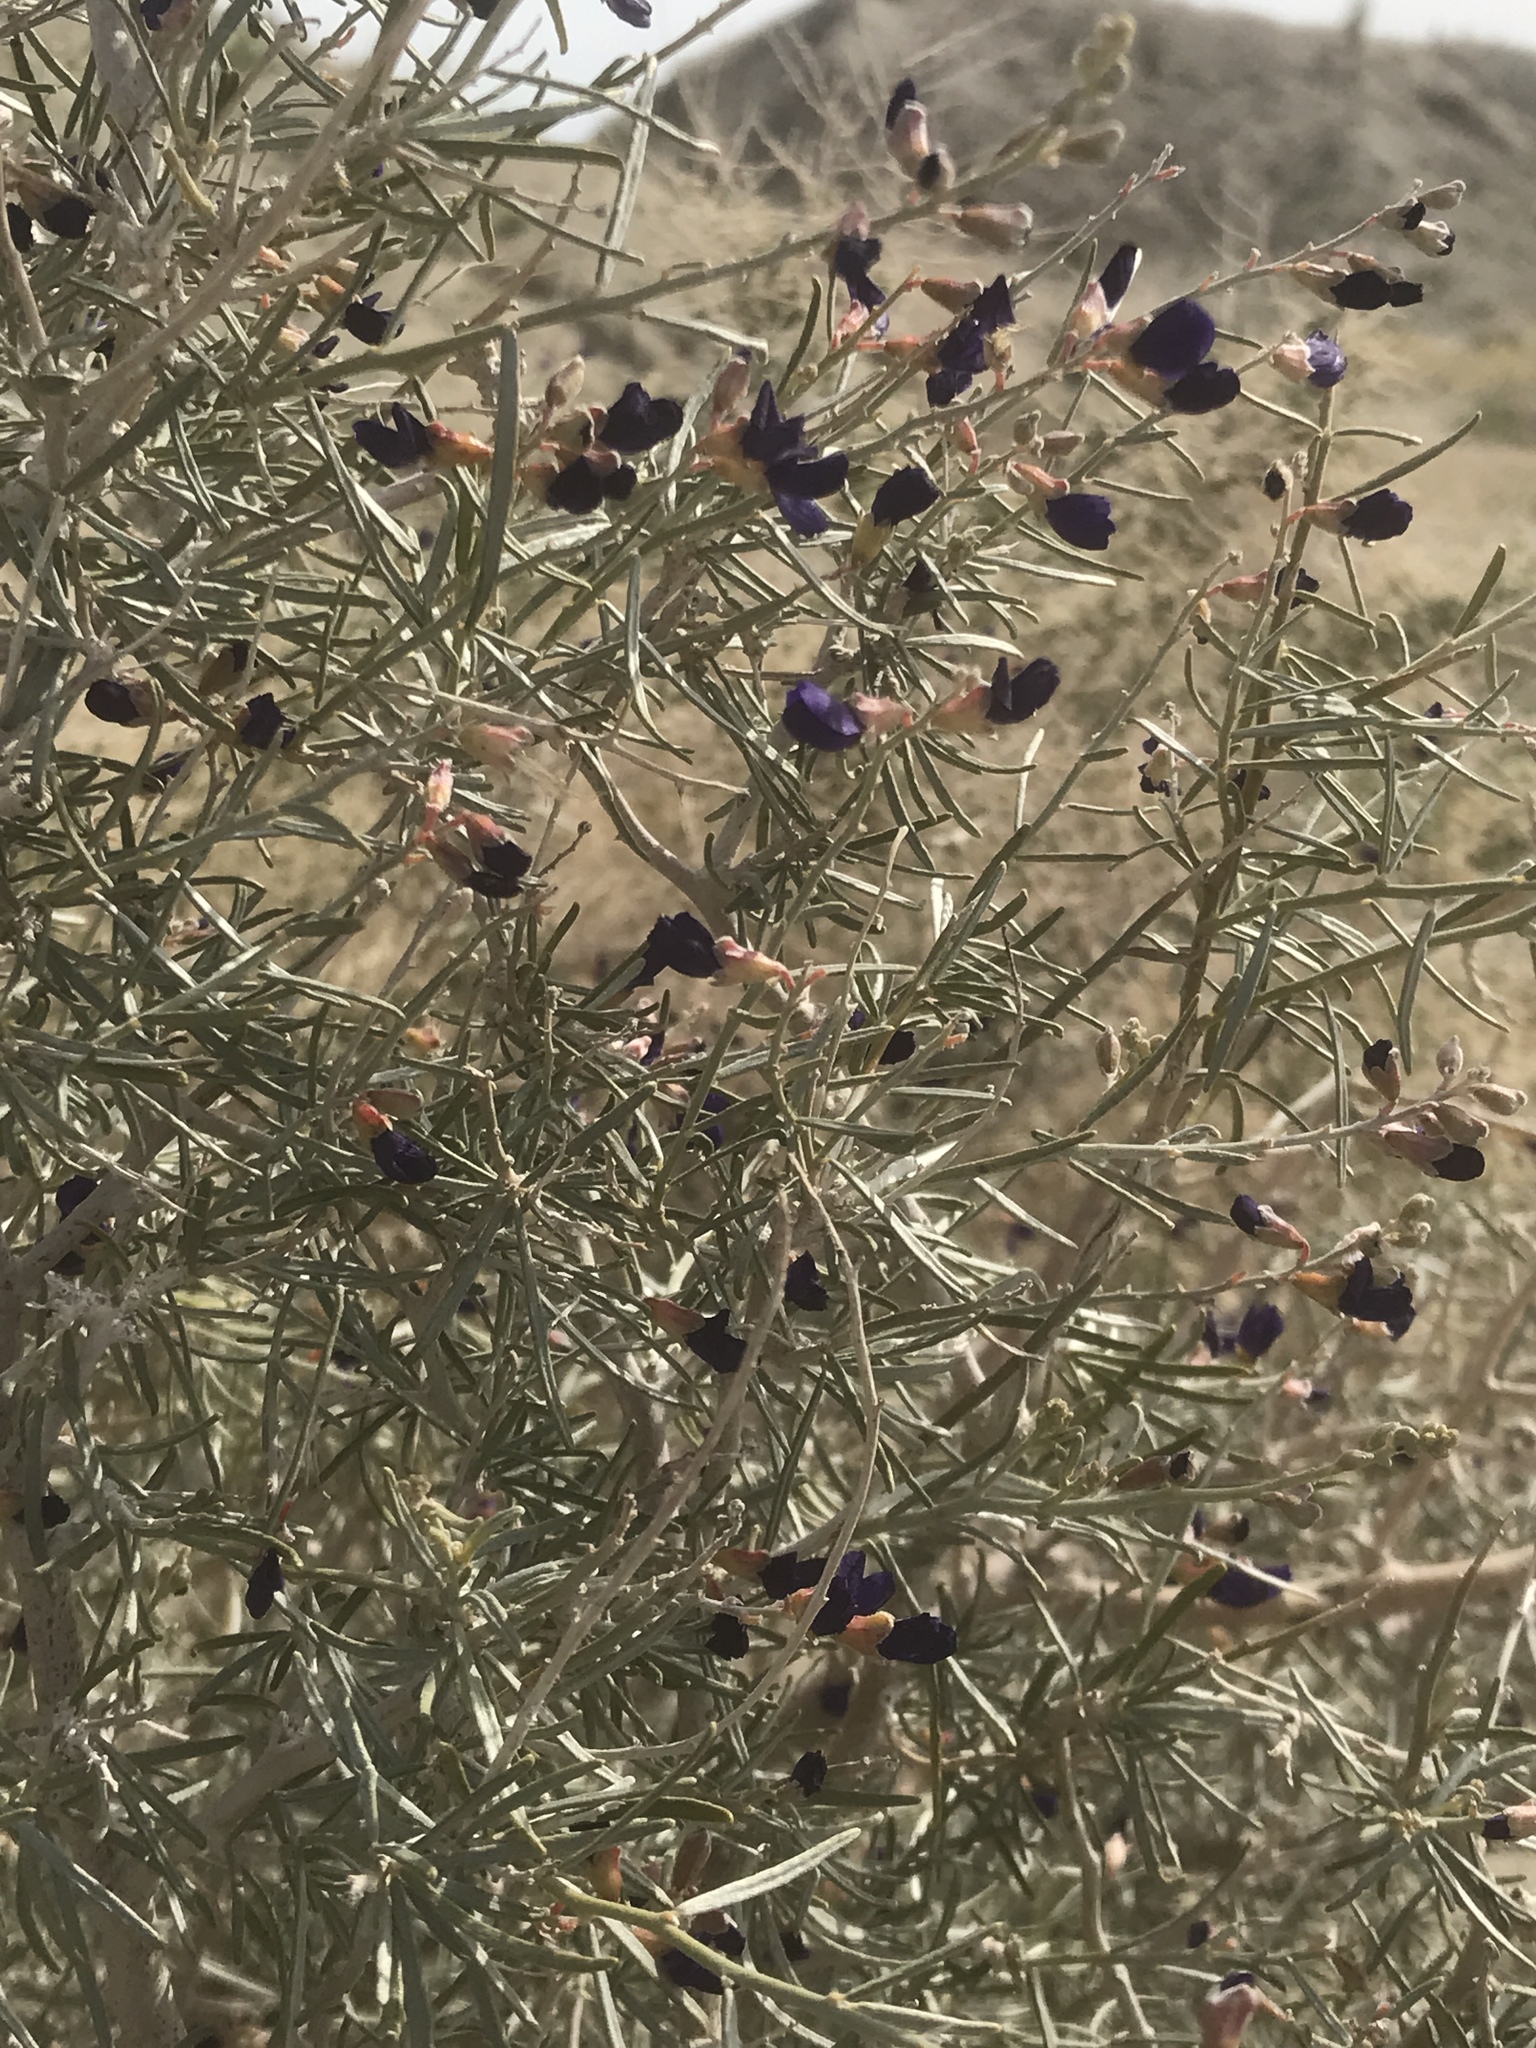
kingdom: Plantae
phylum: Tracheophyta
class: Magnoliopsida
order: Fabales
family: Fabaceae
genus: Psorothamnus
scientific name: Psorothamnus schottii
